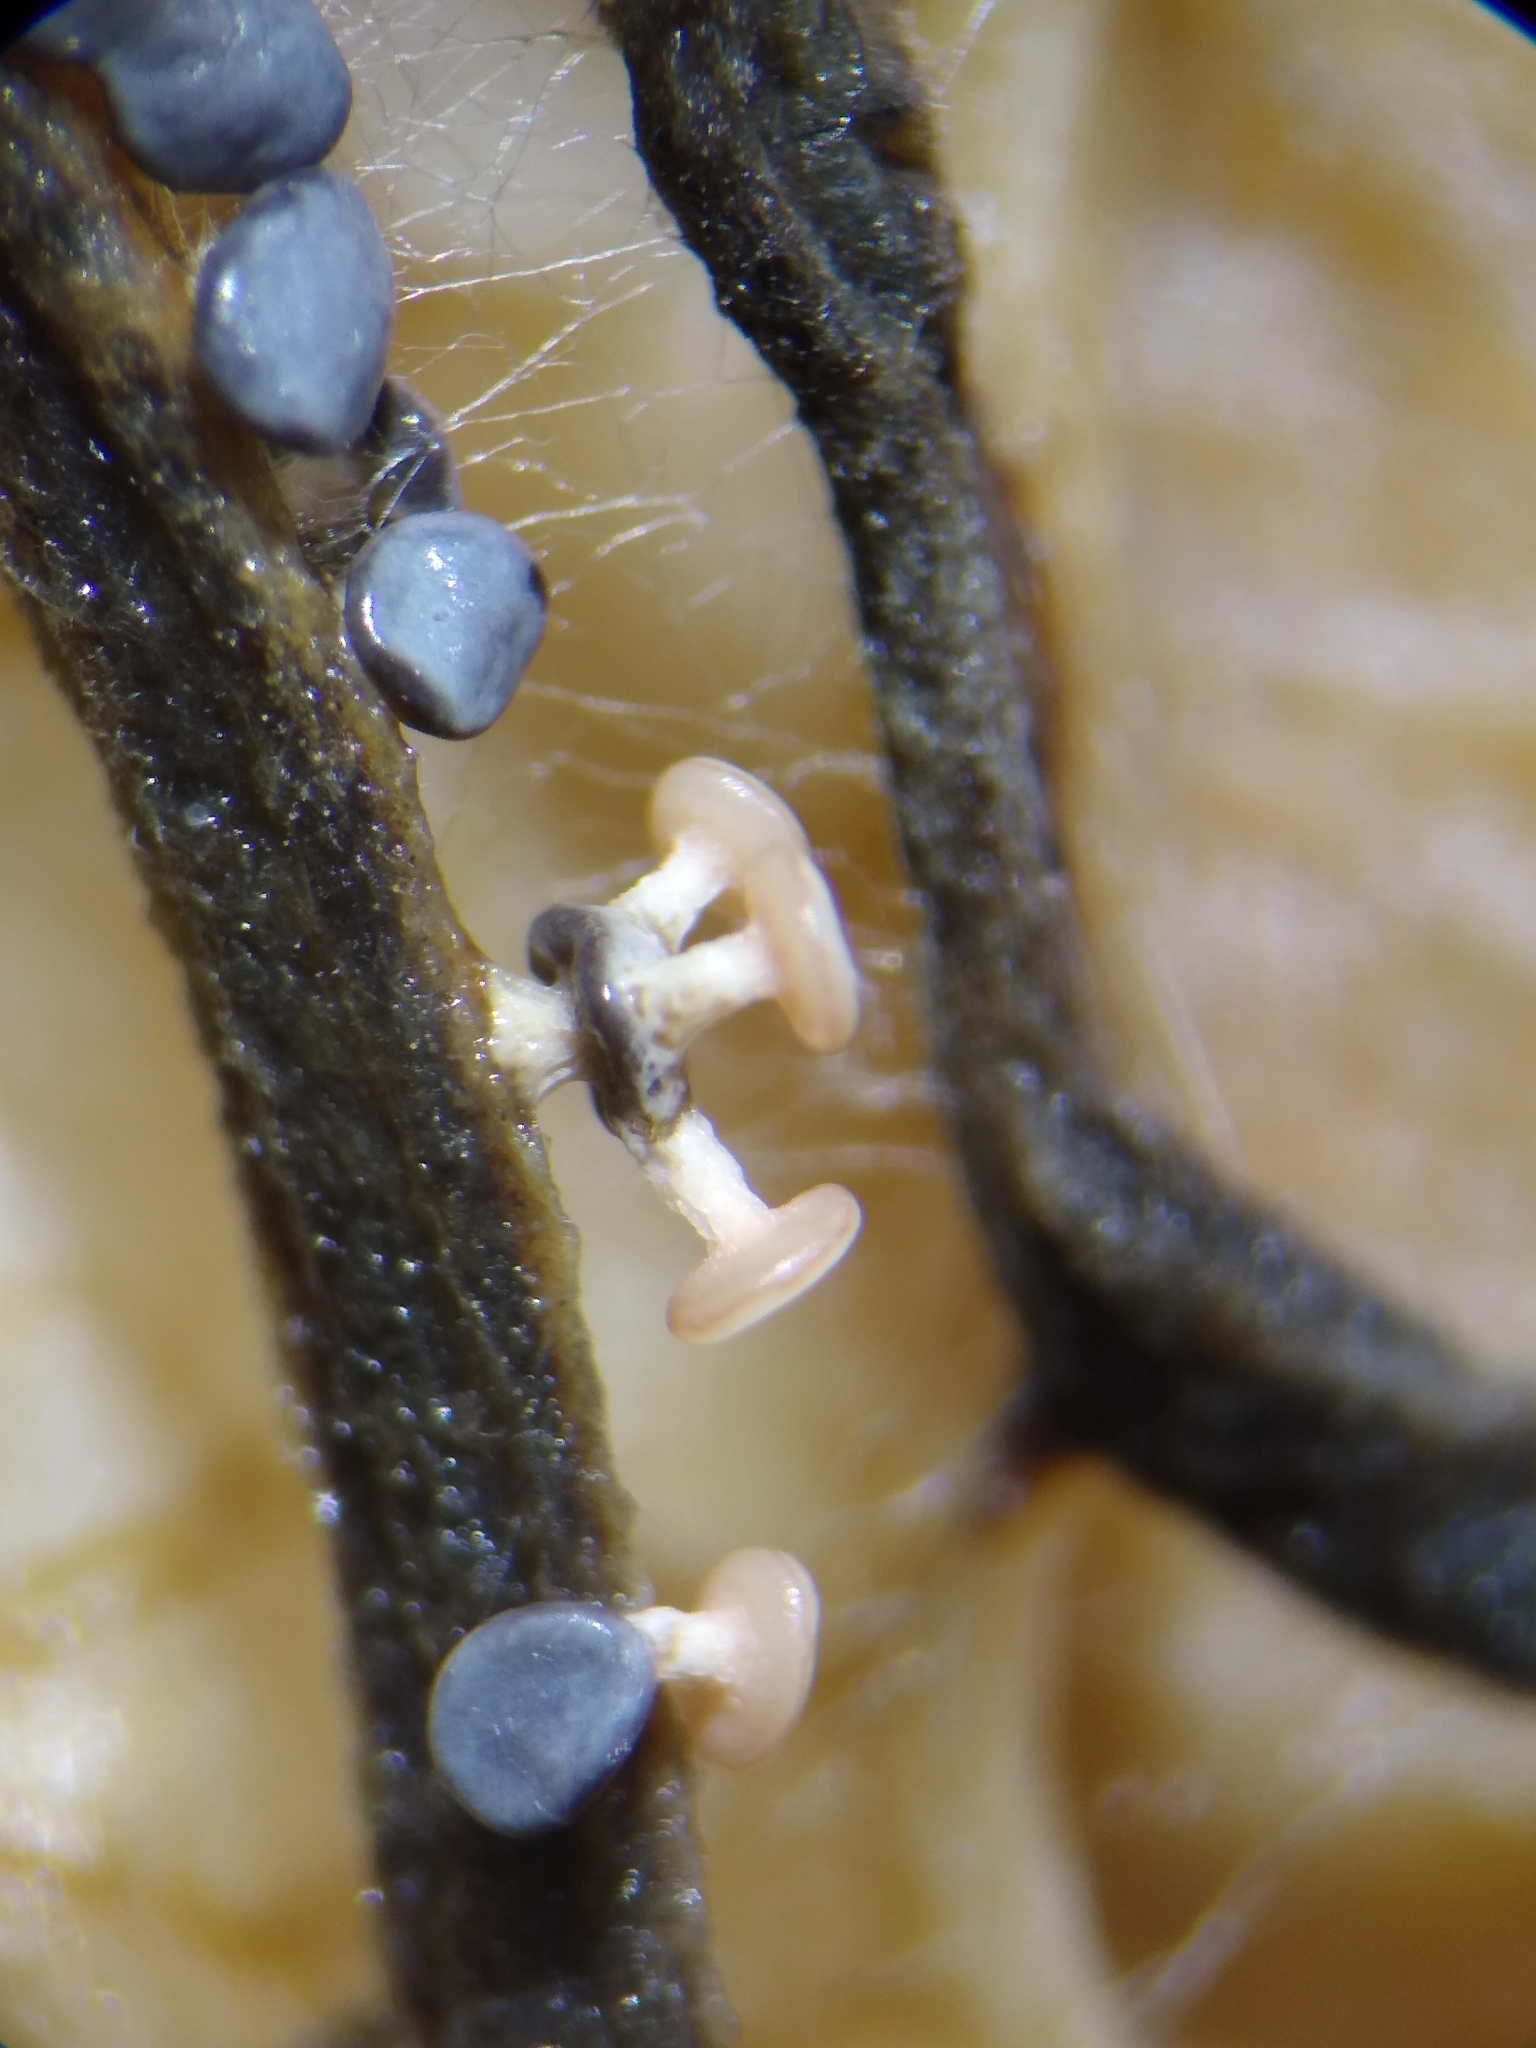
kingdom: Protozoa
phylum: Mycetozoa
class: Myxomycetes
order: Physarales
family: Didymiaceae
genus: Diderma
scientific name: Diderma hemisphaericum
